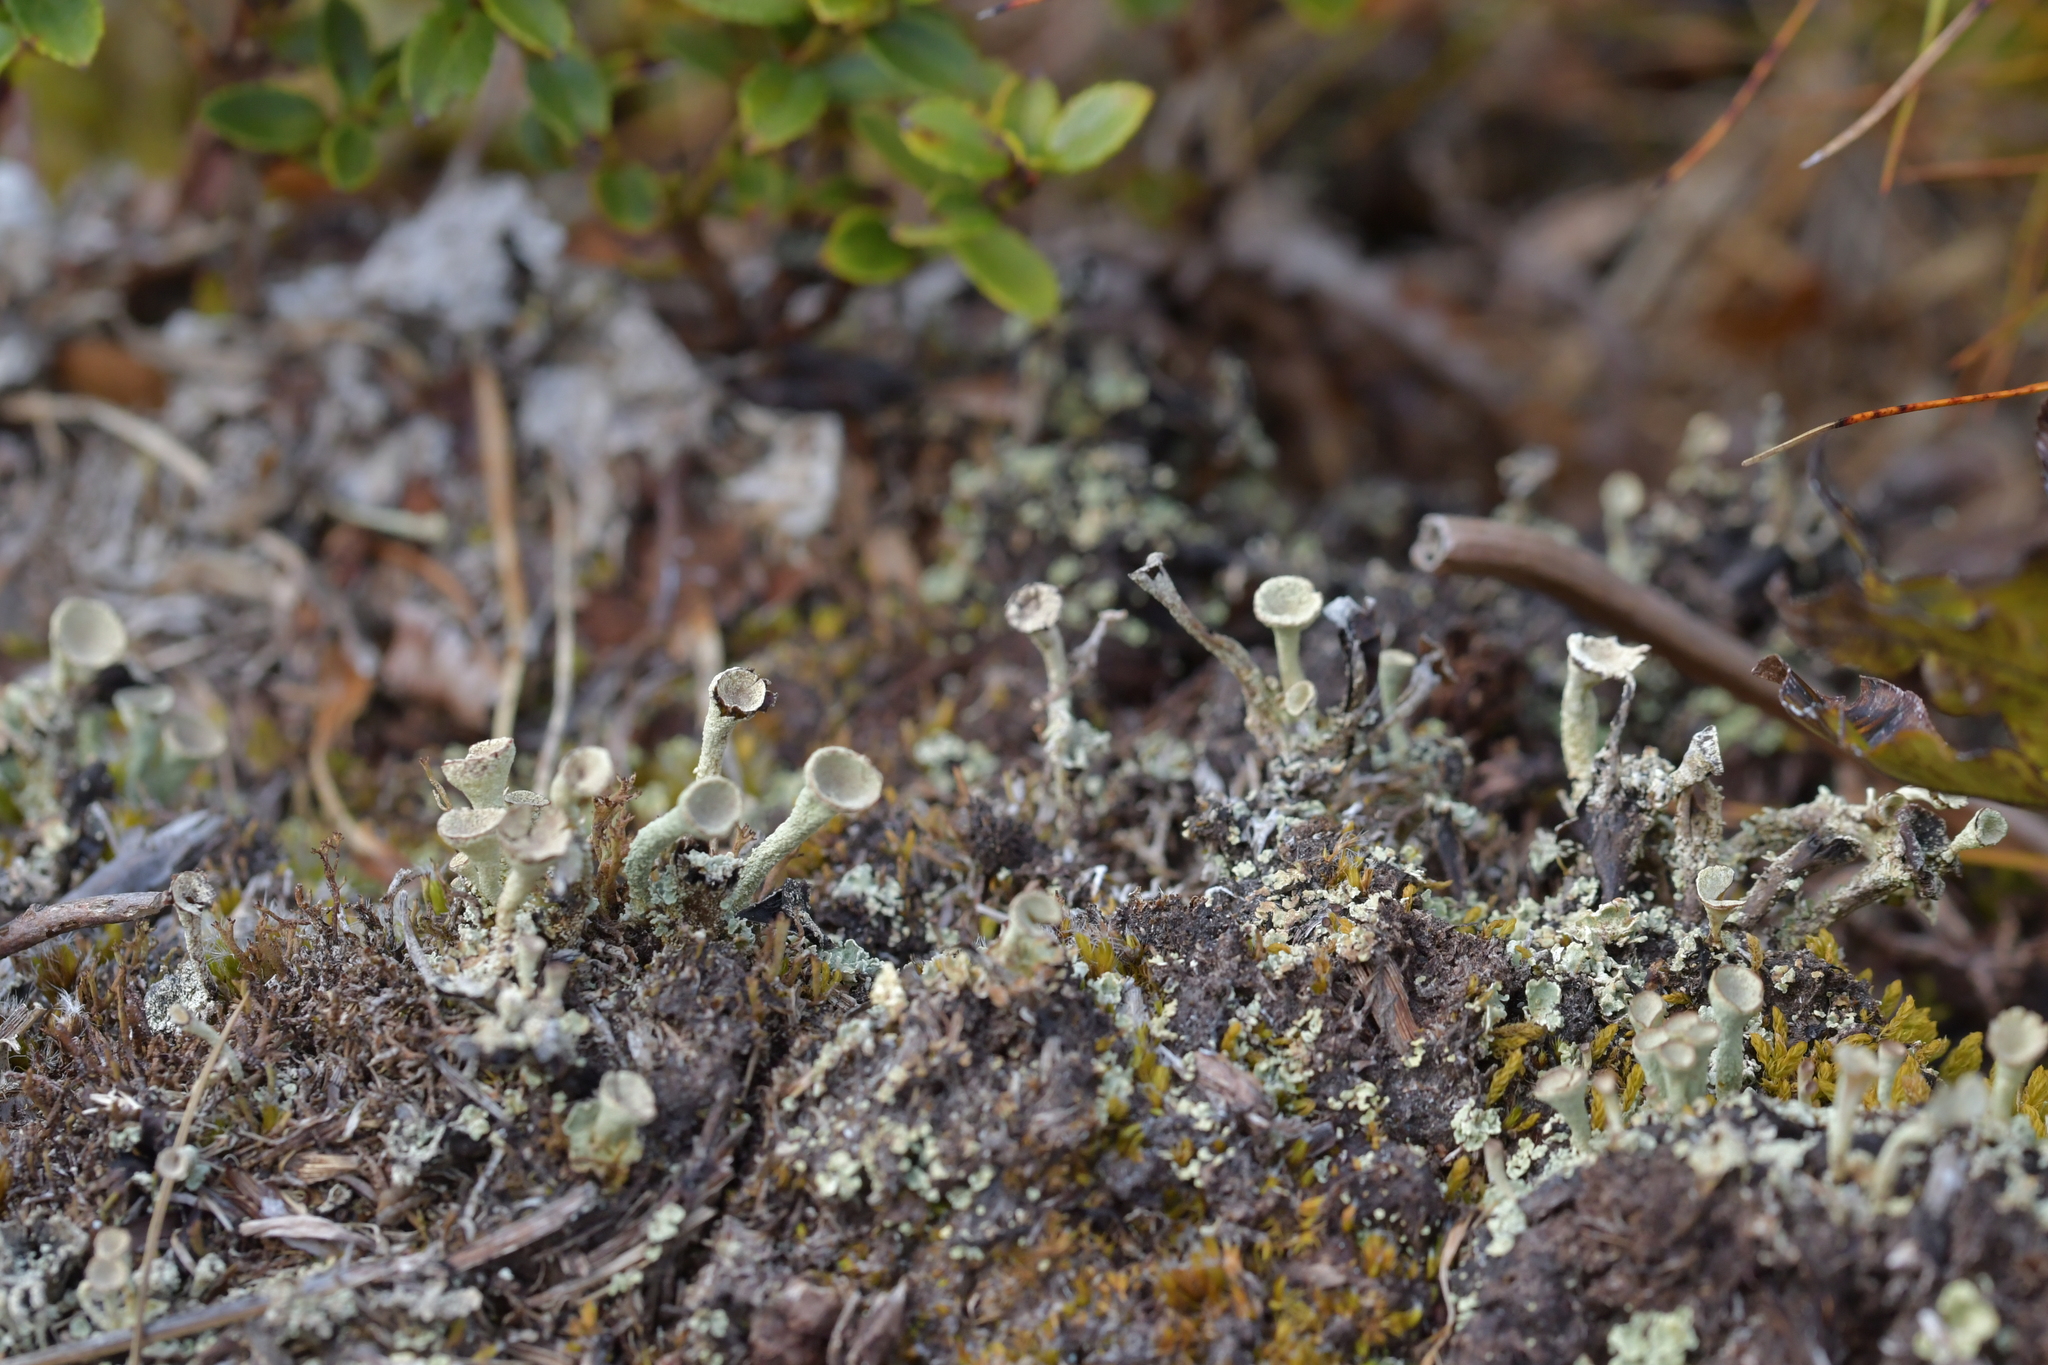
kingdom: Fungi
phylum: Ascomycota
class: Lecanoromycetes
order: Lecanorales
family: Cladoniaceae
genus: Cladonia
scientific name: Cladonia fimbriata
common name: Powdered trumpet lichen
